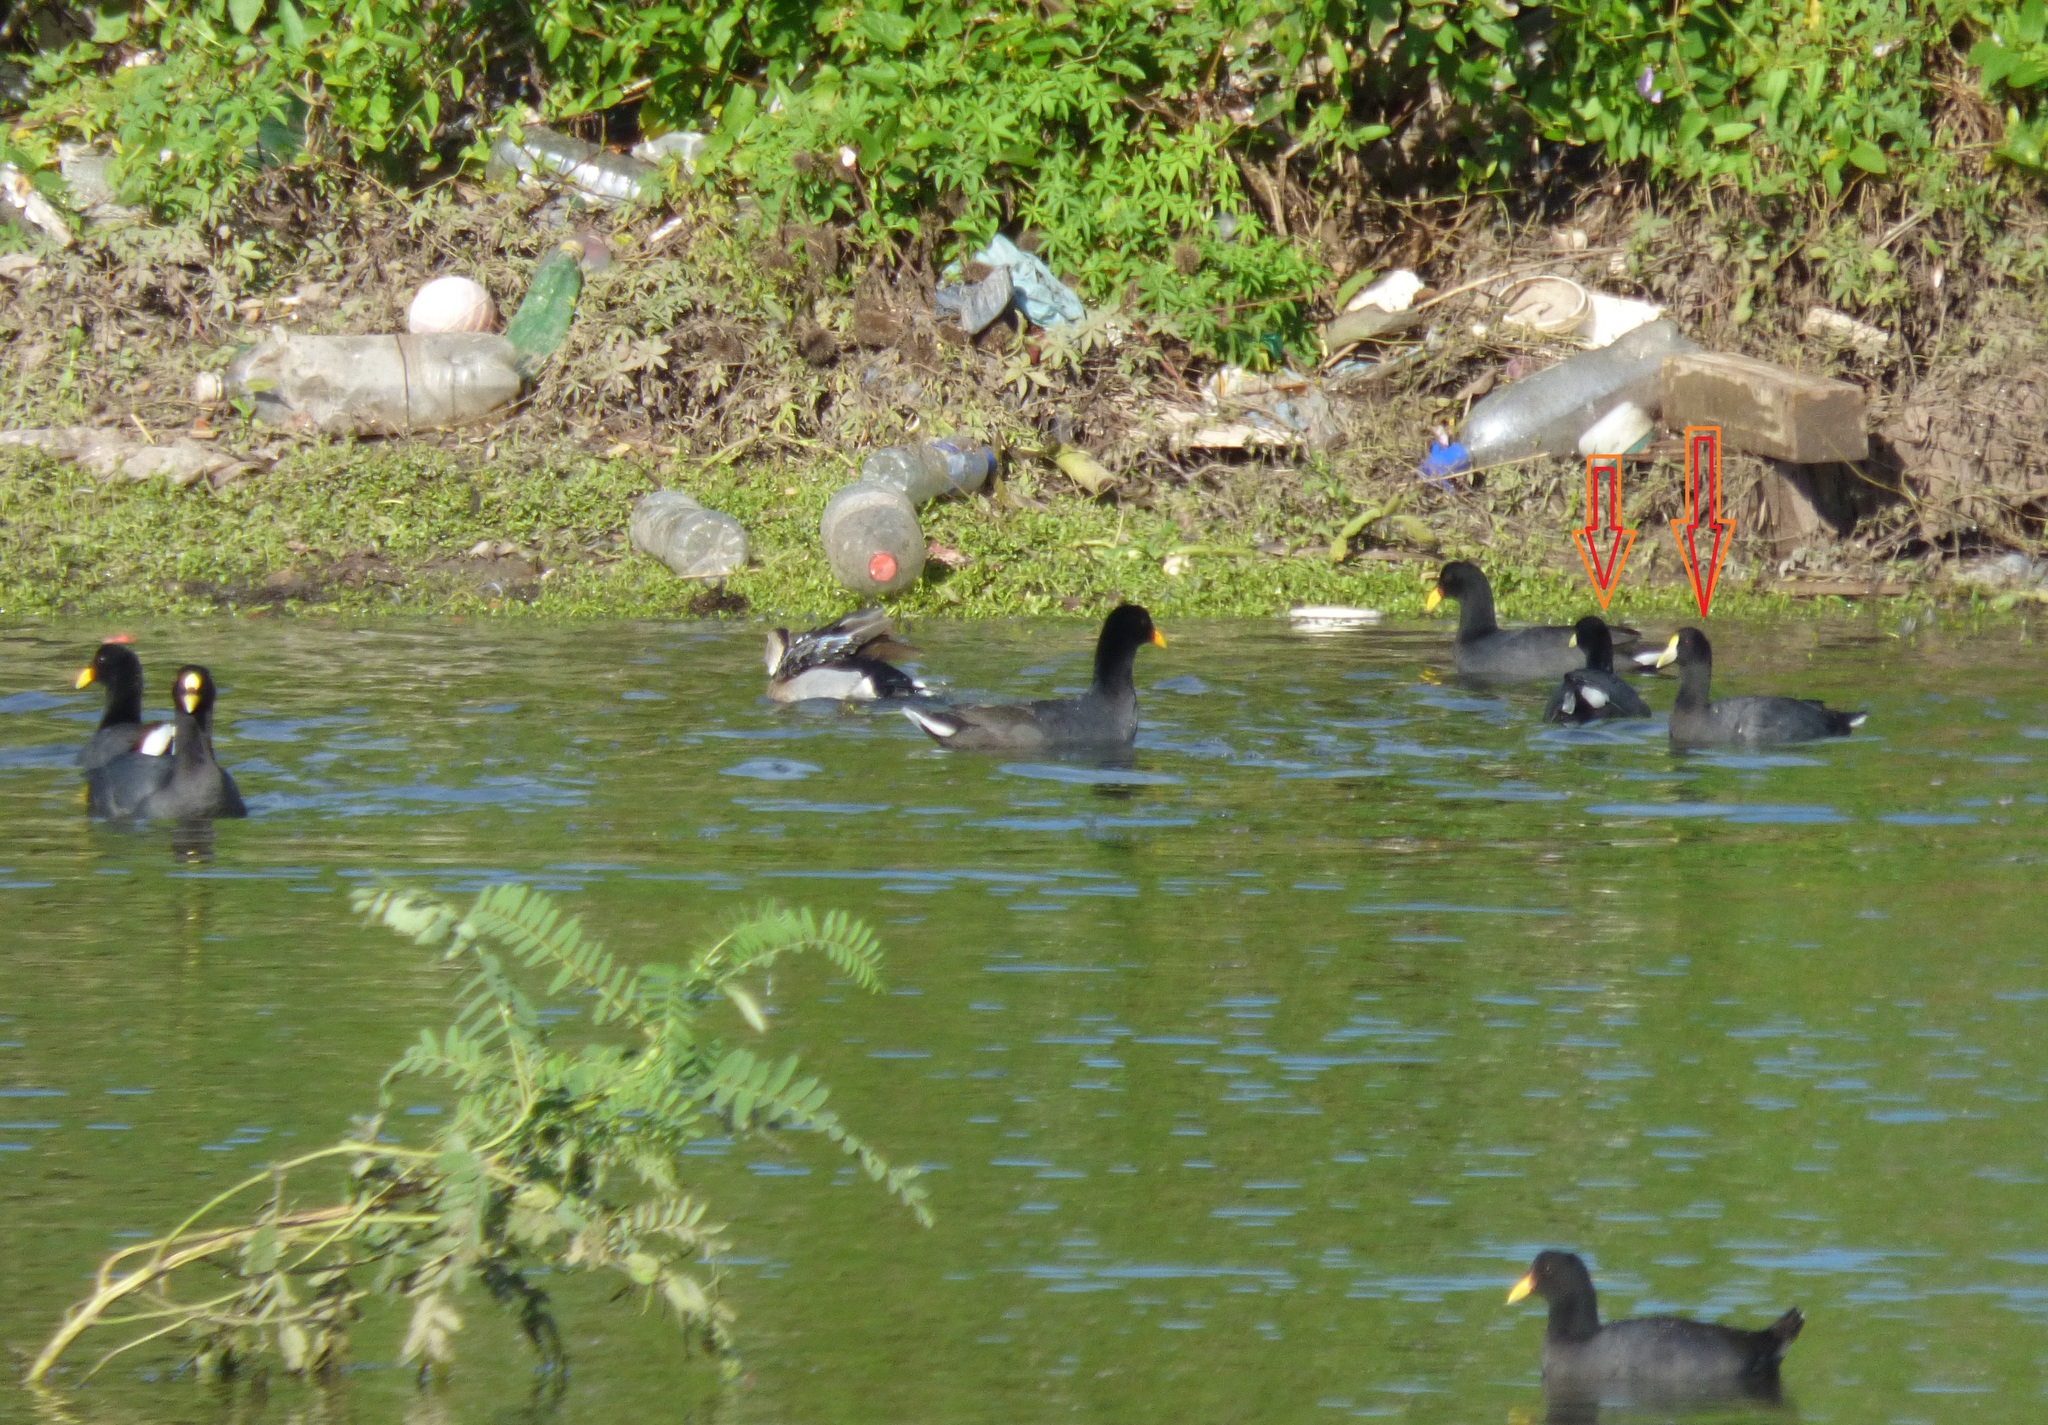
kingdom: Animalia
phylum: Chordata
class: Aves
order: Gruiformes
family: Rallidae
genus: Fulica
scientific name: Fulica leucoptera
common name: White-winged coot
